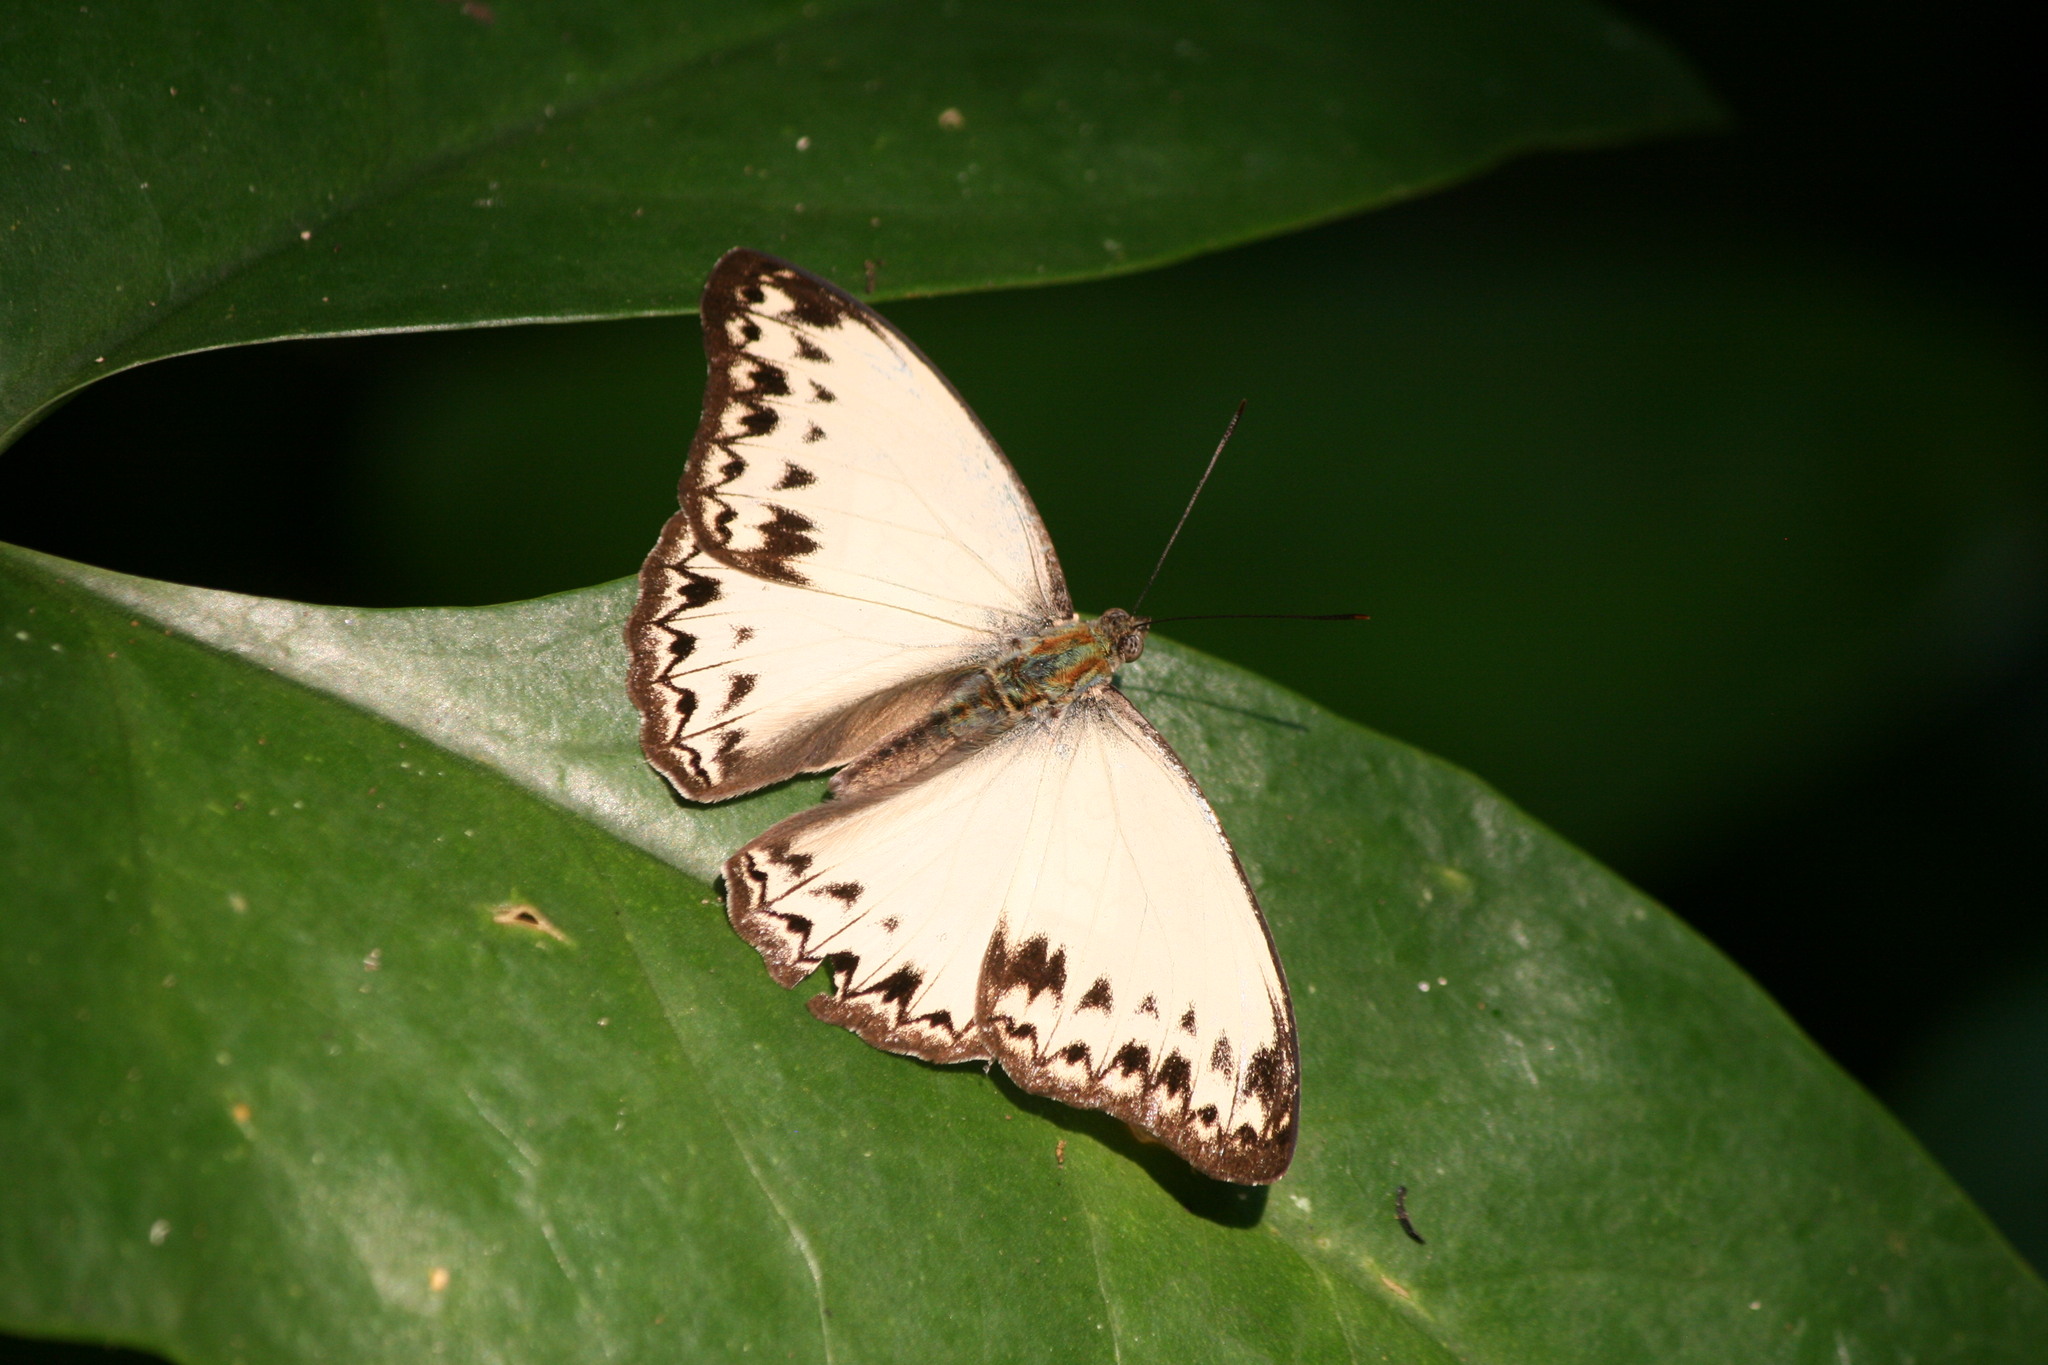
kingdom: Animalia
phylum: Arthropoda
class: Insecta
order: Lepidoptera
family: Nymphalidae
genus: Cymothoe
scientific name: Cymothoe caenis
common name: Common glider
